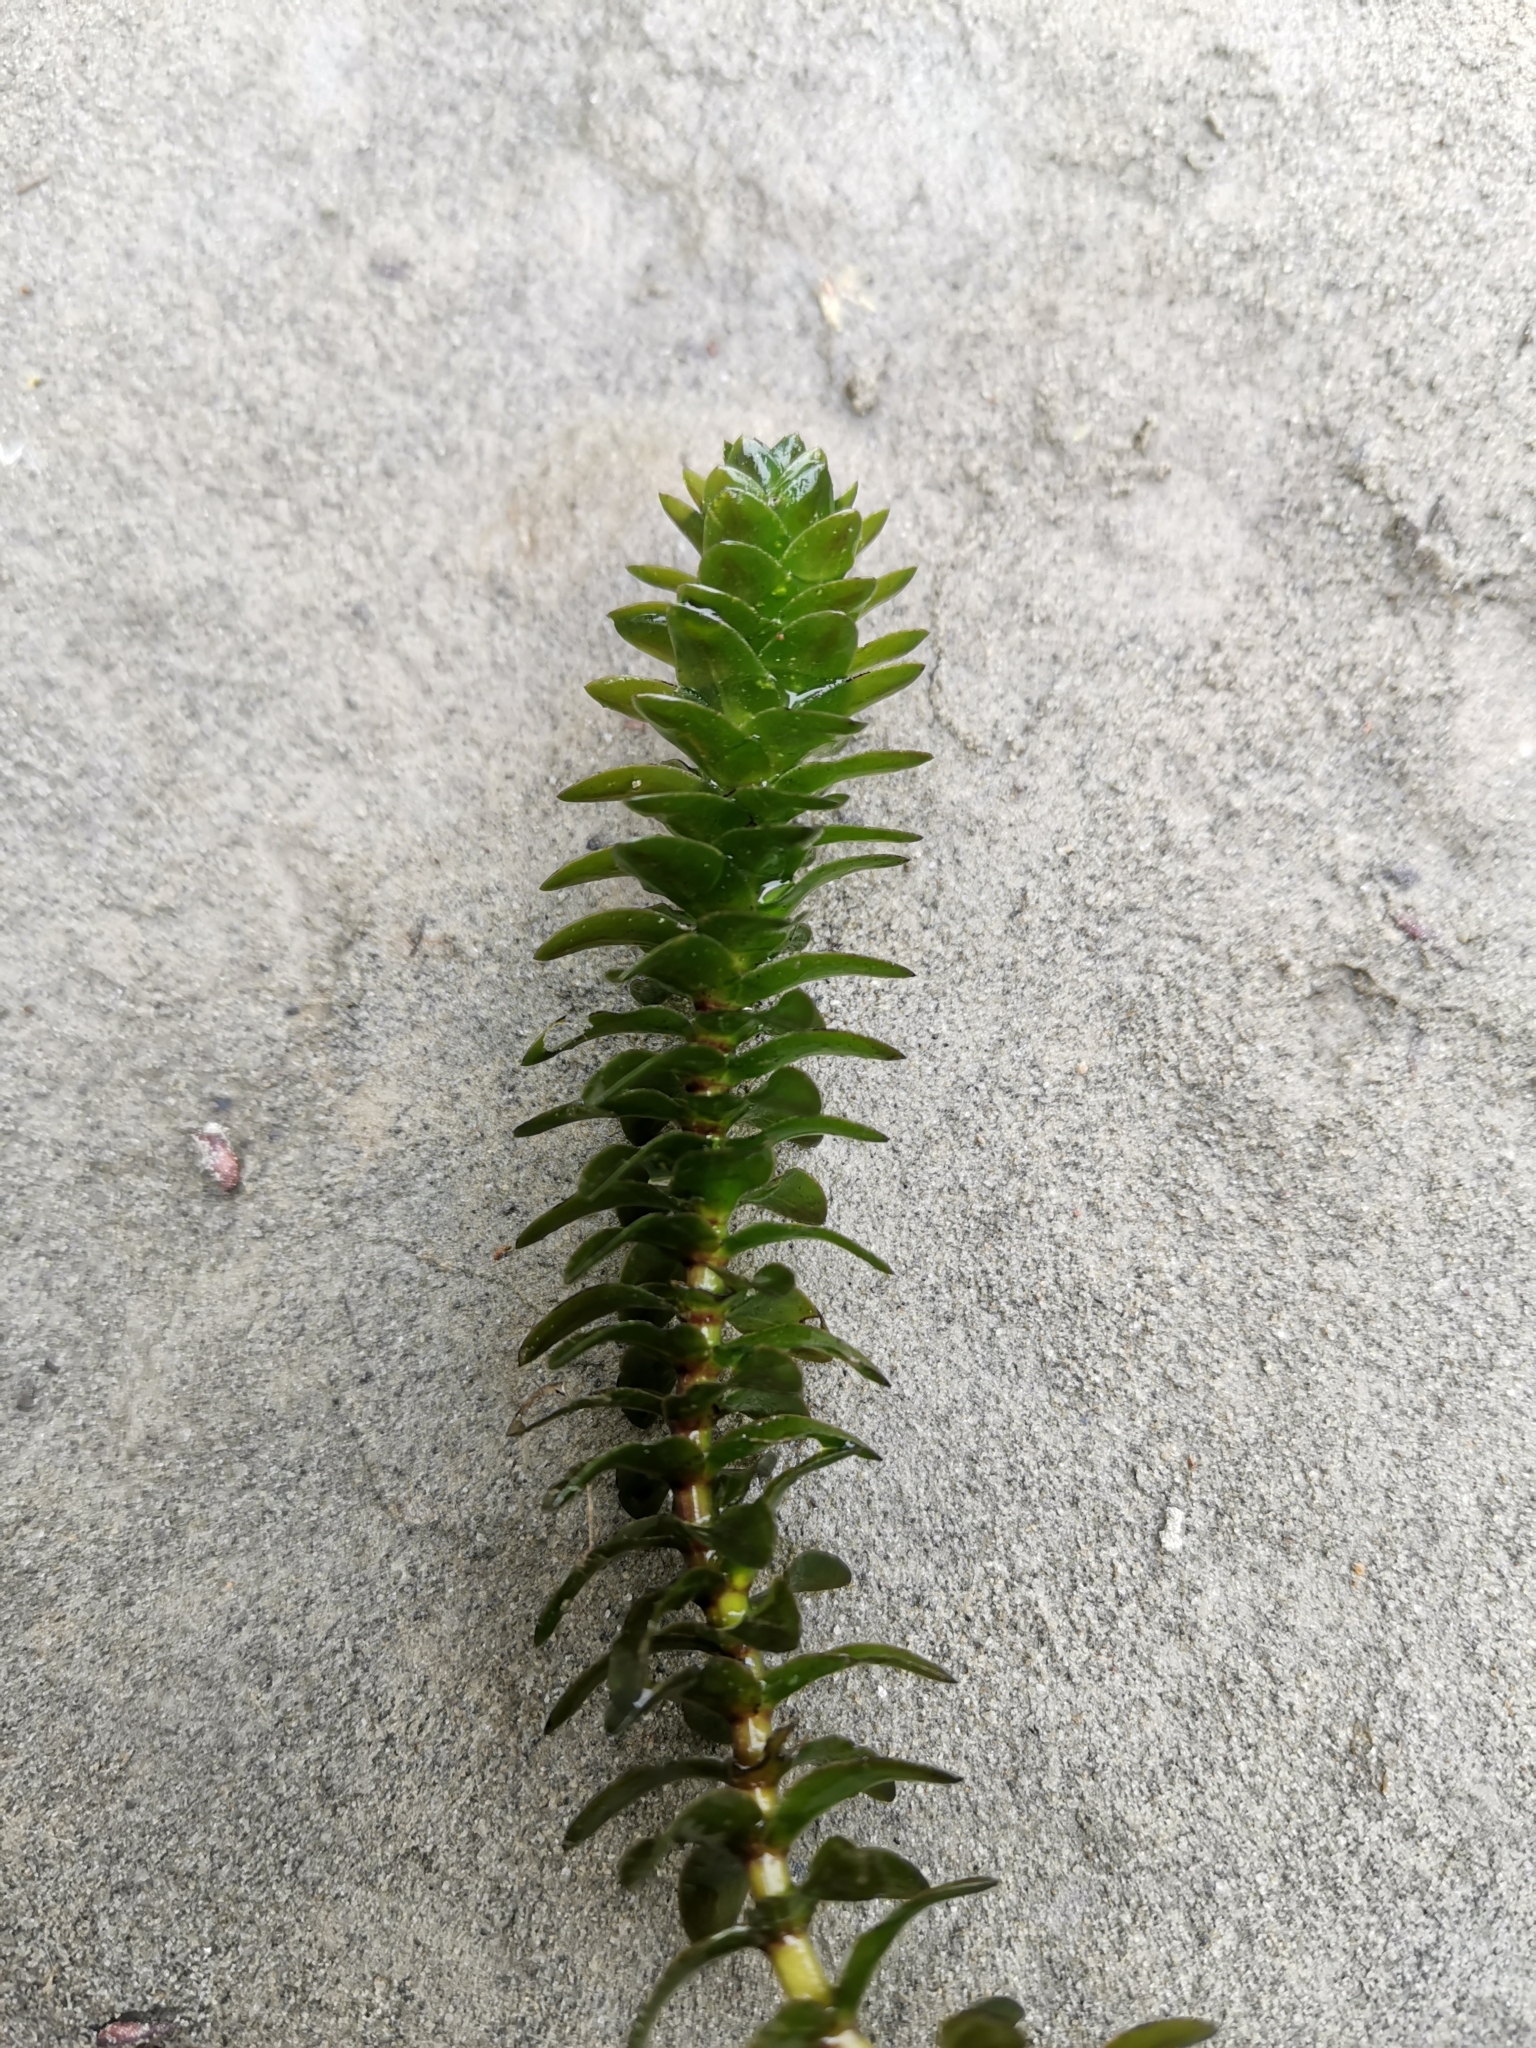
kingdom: Plantae
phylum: Tracheophyta
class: Liliopsida
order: Alismatales
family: Hydrocharitaceae
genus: Elodea
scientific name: Elodea canadensis
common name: Canadian waterweed
